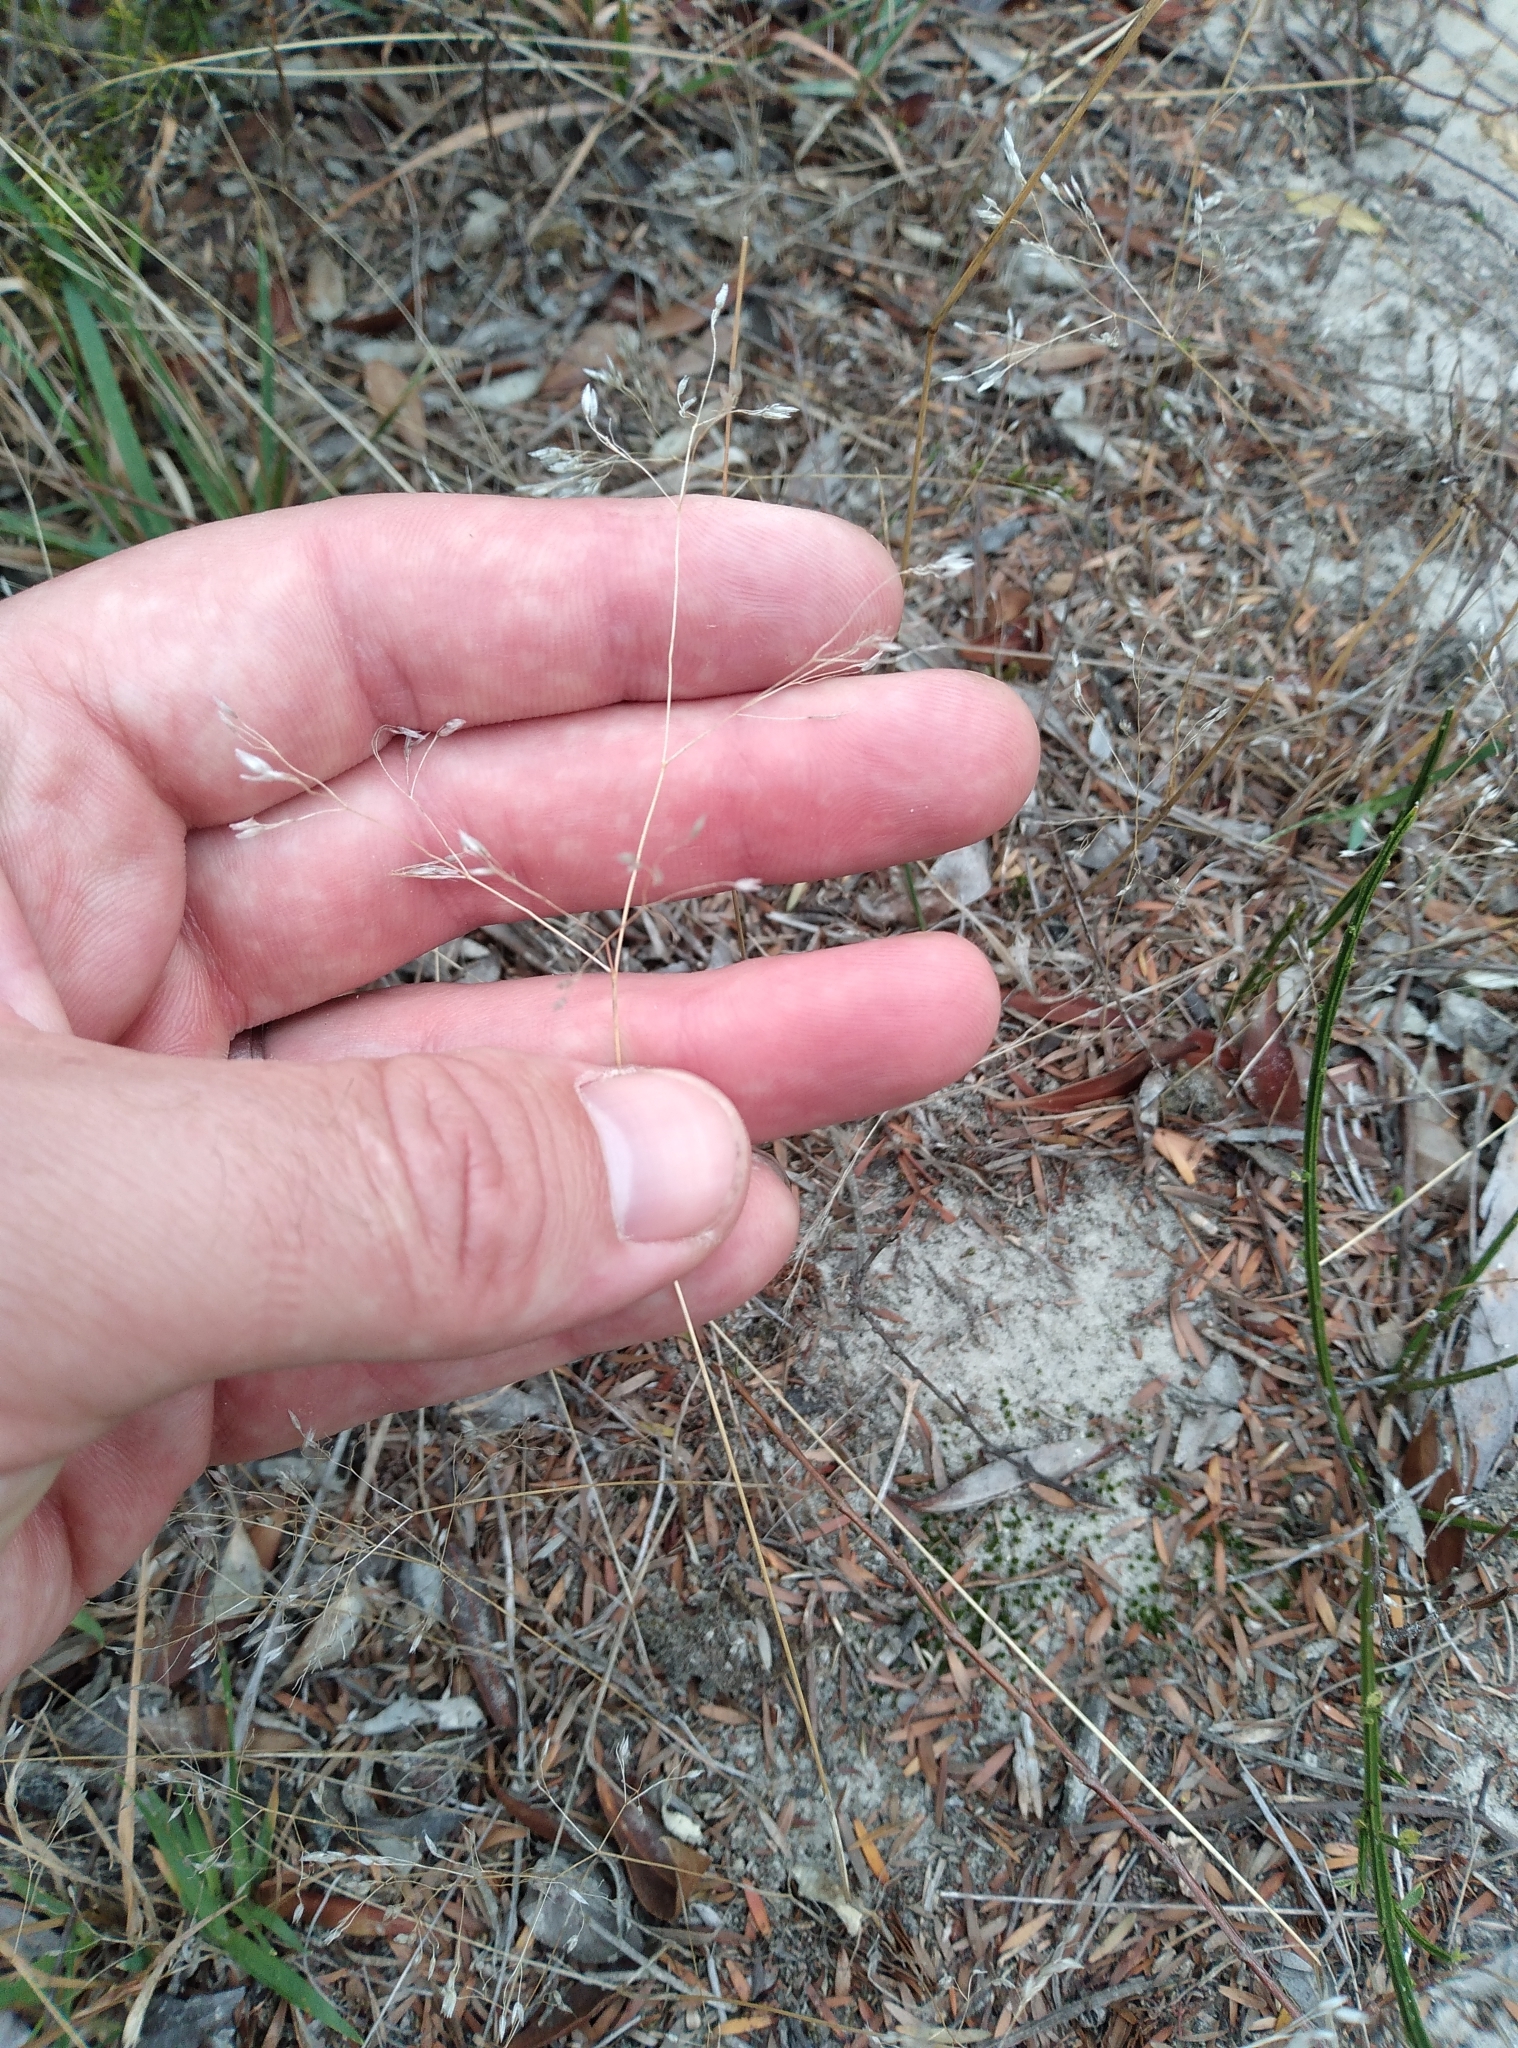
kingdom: Plantae
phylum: Tracheophyta
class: Liliopsida
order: Poales
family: Poaceae
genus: Aira
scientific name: Aira caryophyllea
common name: Silver hairgrass
